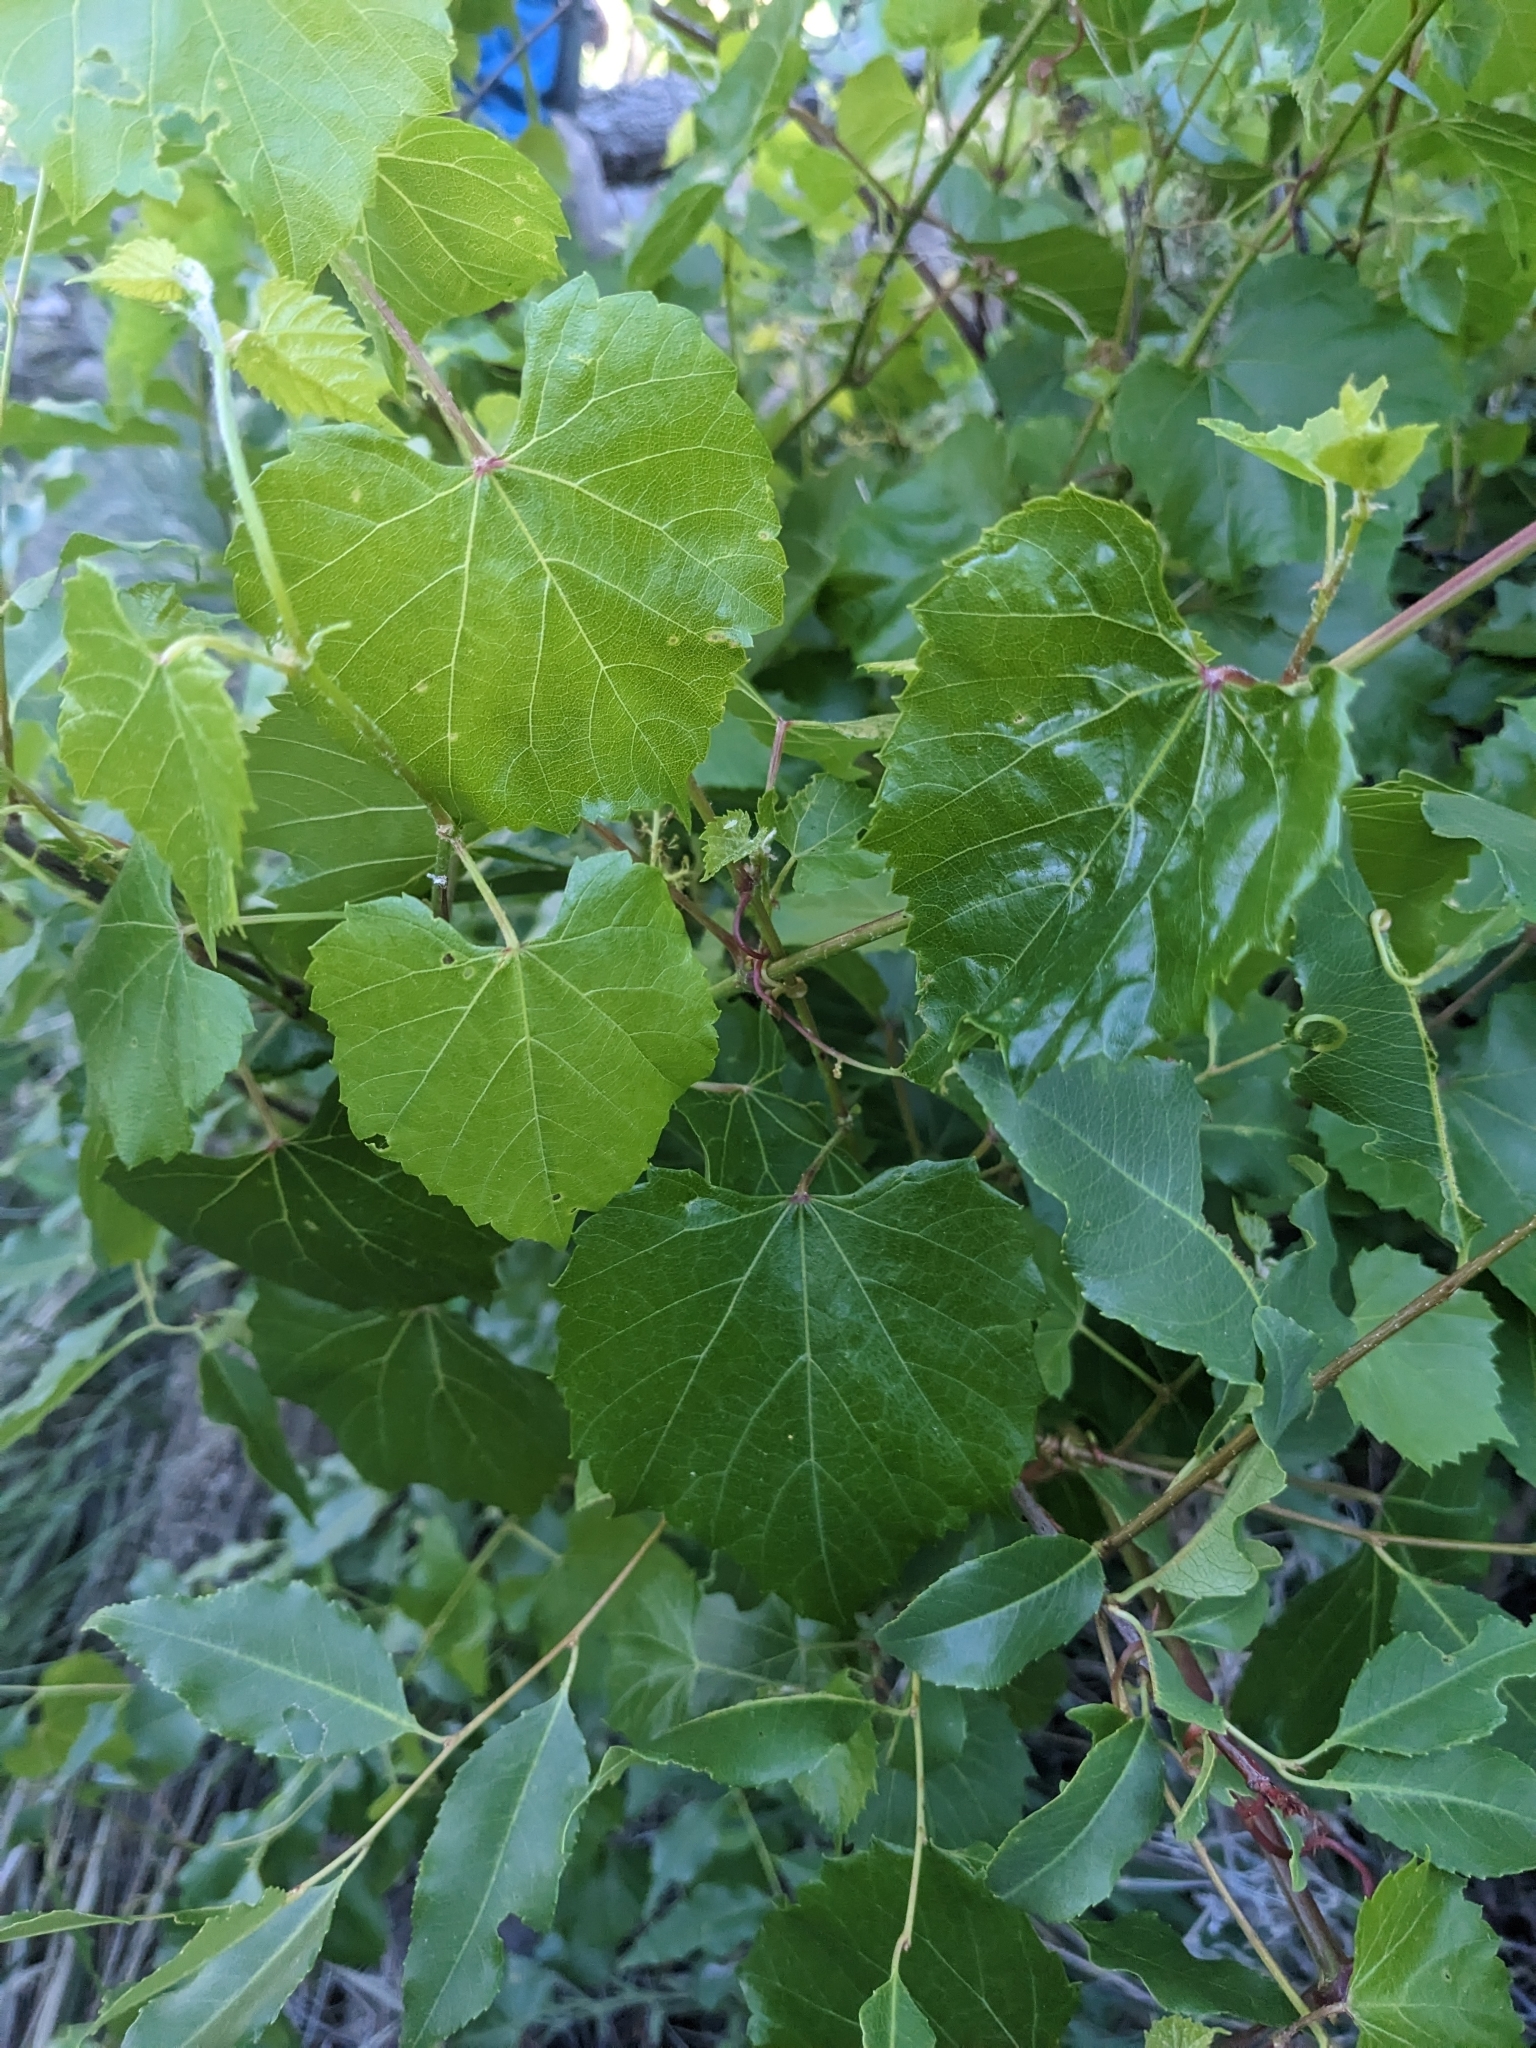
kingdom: Plantae
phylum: Tracheophyta
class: Magnoliopsida
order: Vitales
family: Vitaceae
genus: Vitis
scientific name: Vitis arizonica
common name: Canyon grape
